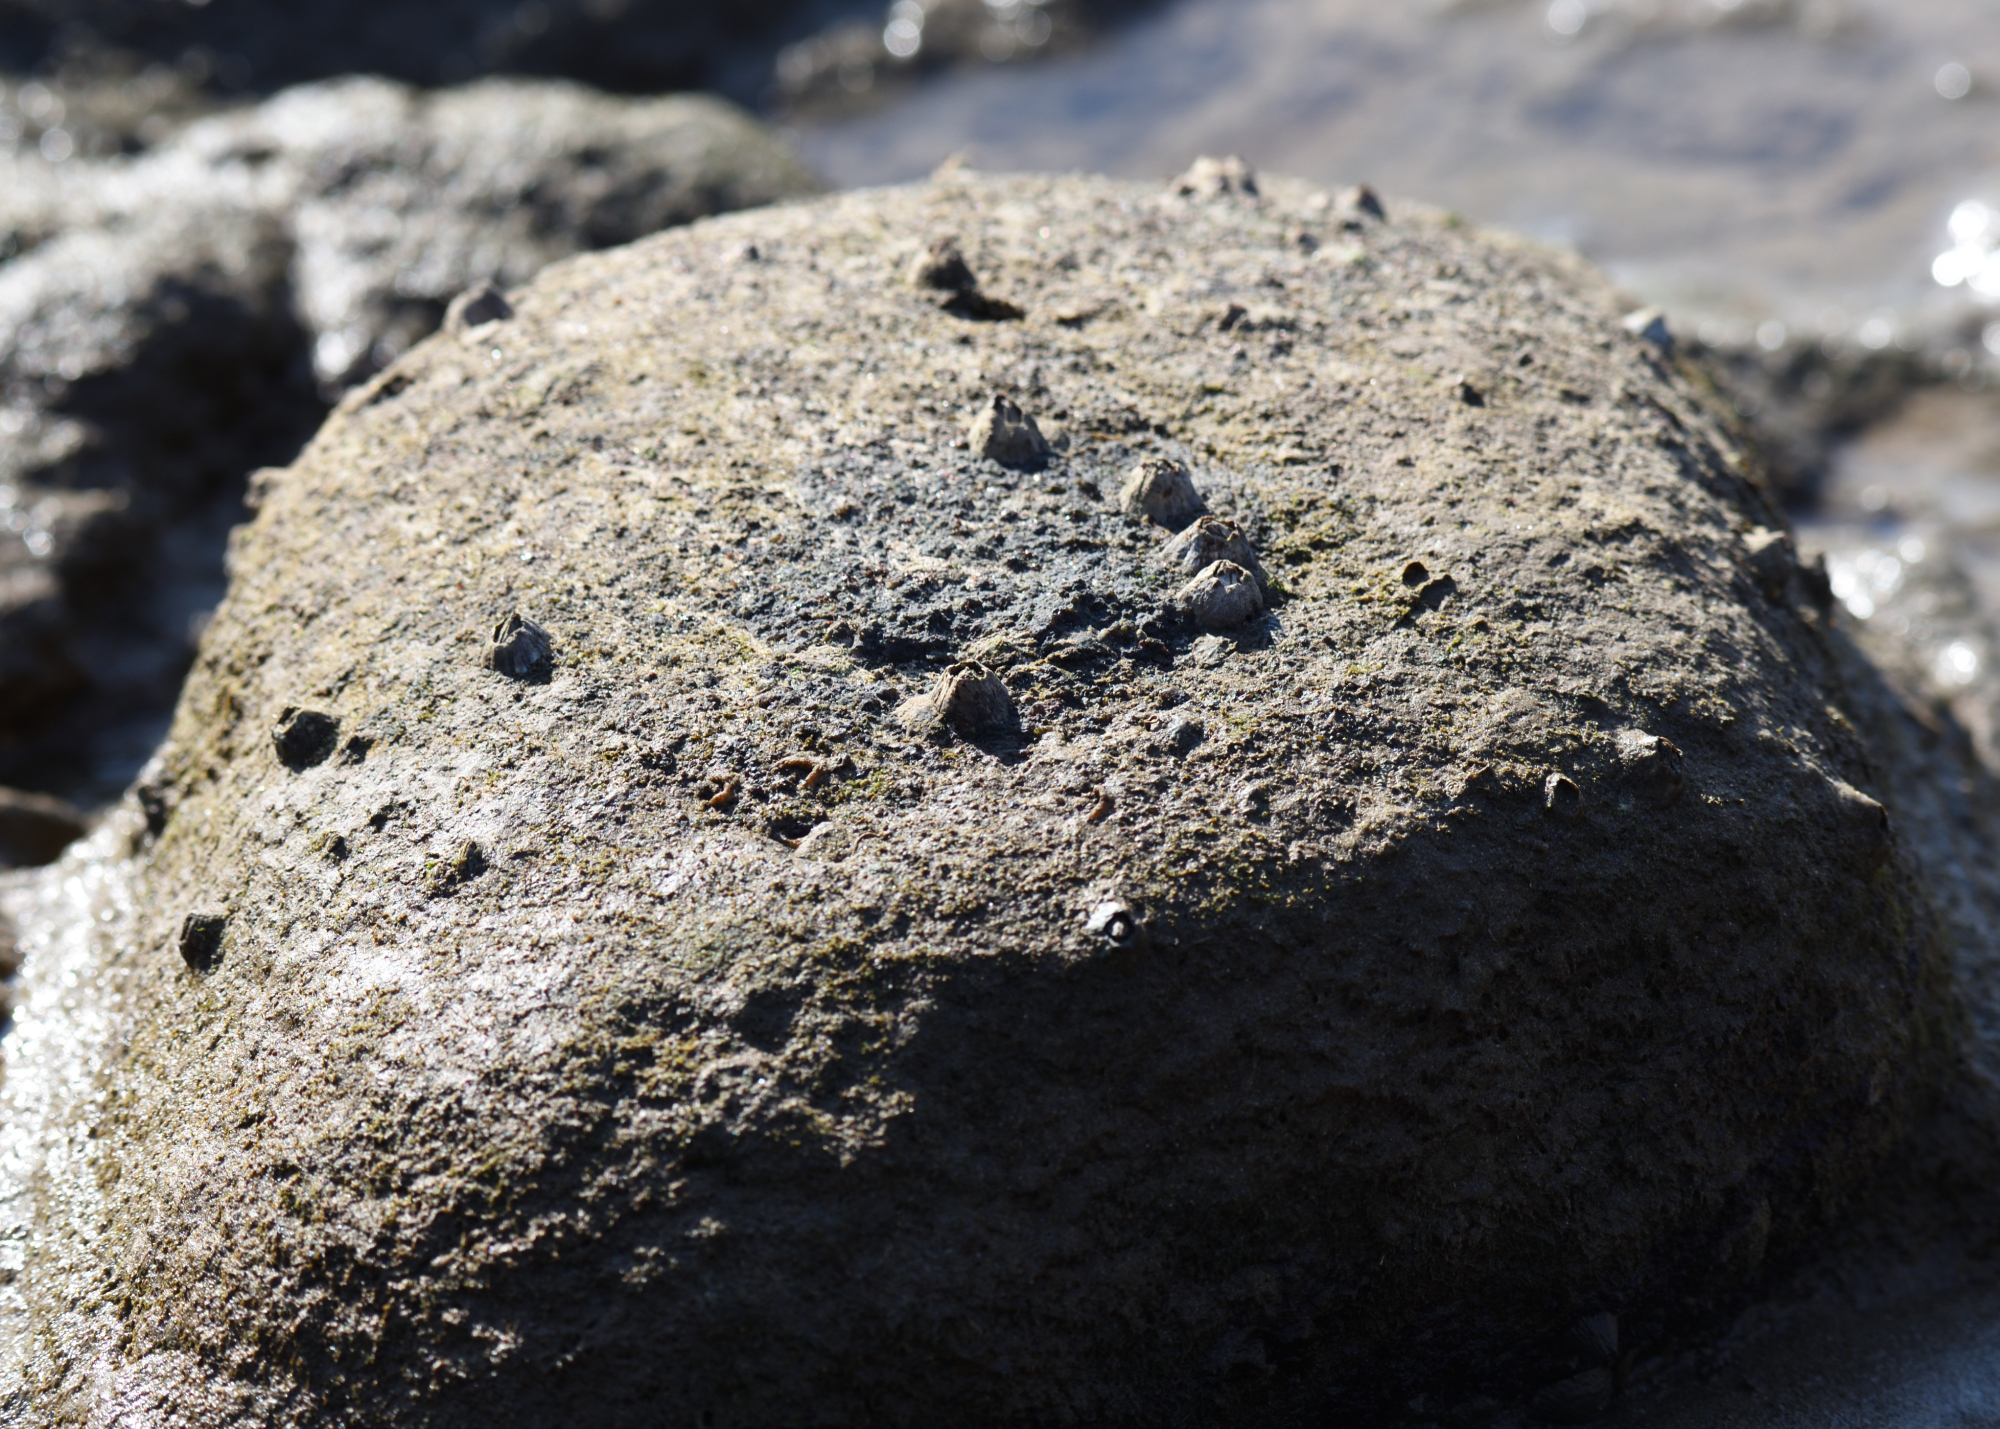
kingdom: Animalia
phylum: Arthropoda
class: Maxillopoda
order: Sessilia
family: Tetraclitidae
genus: Tetraclita
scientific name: Tetraclita serrata
